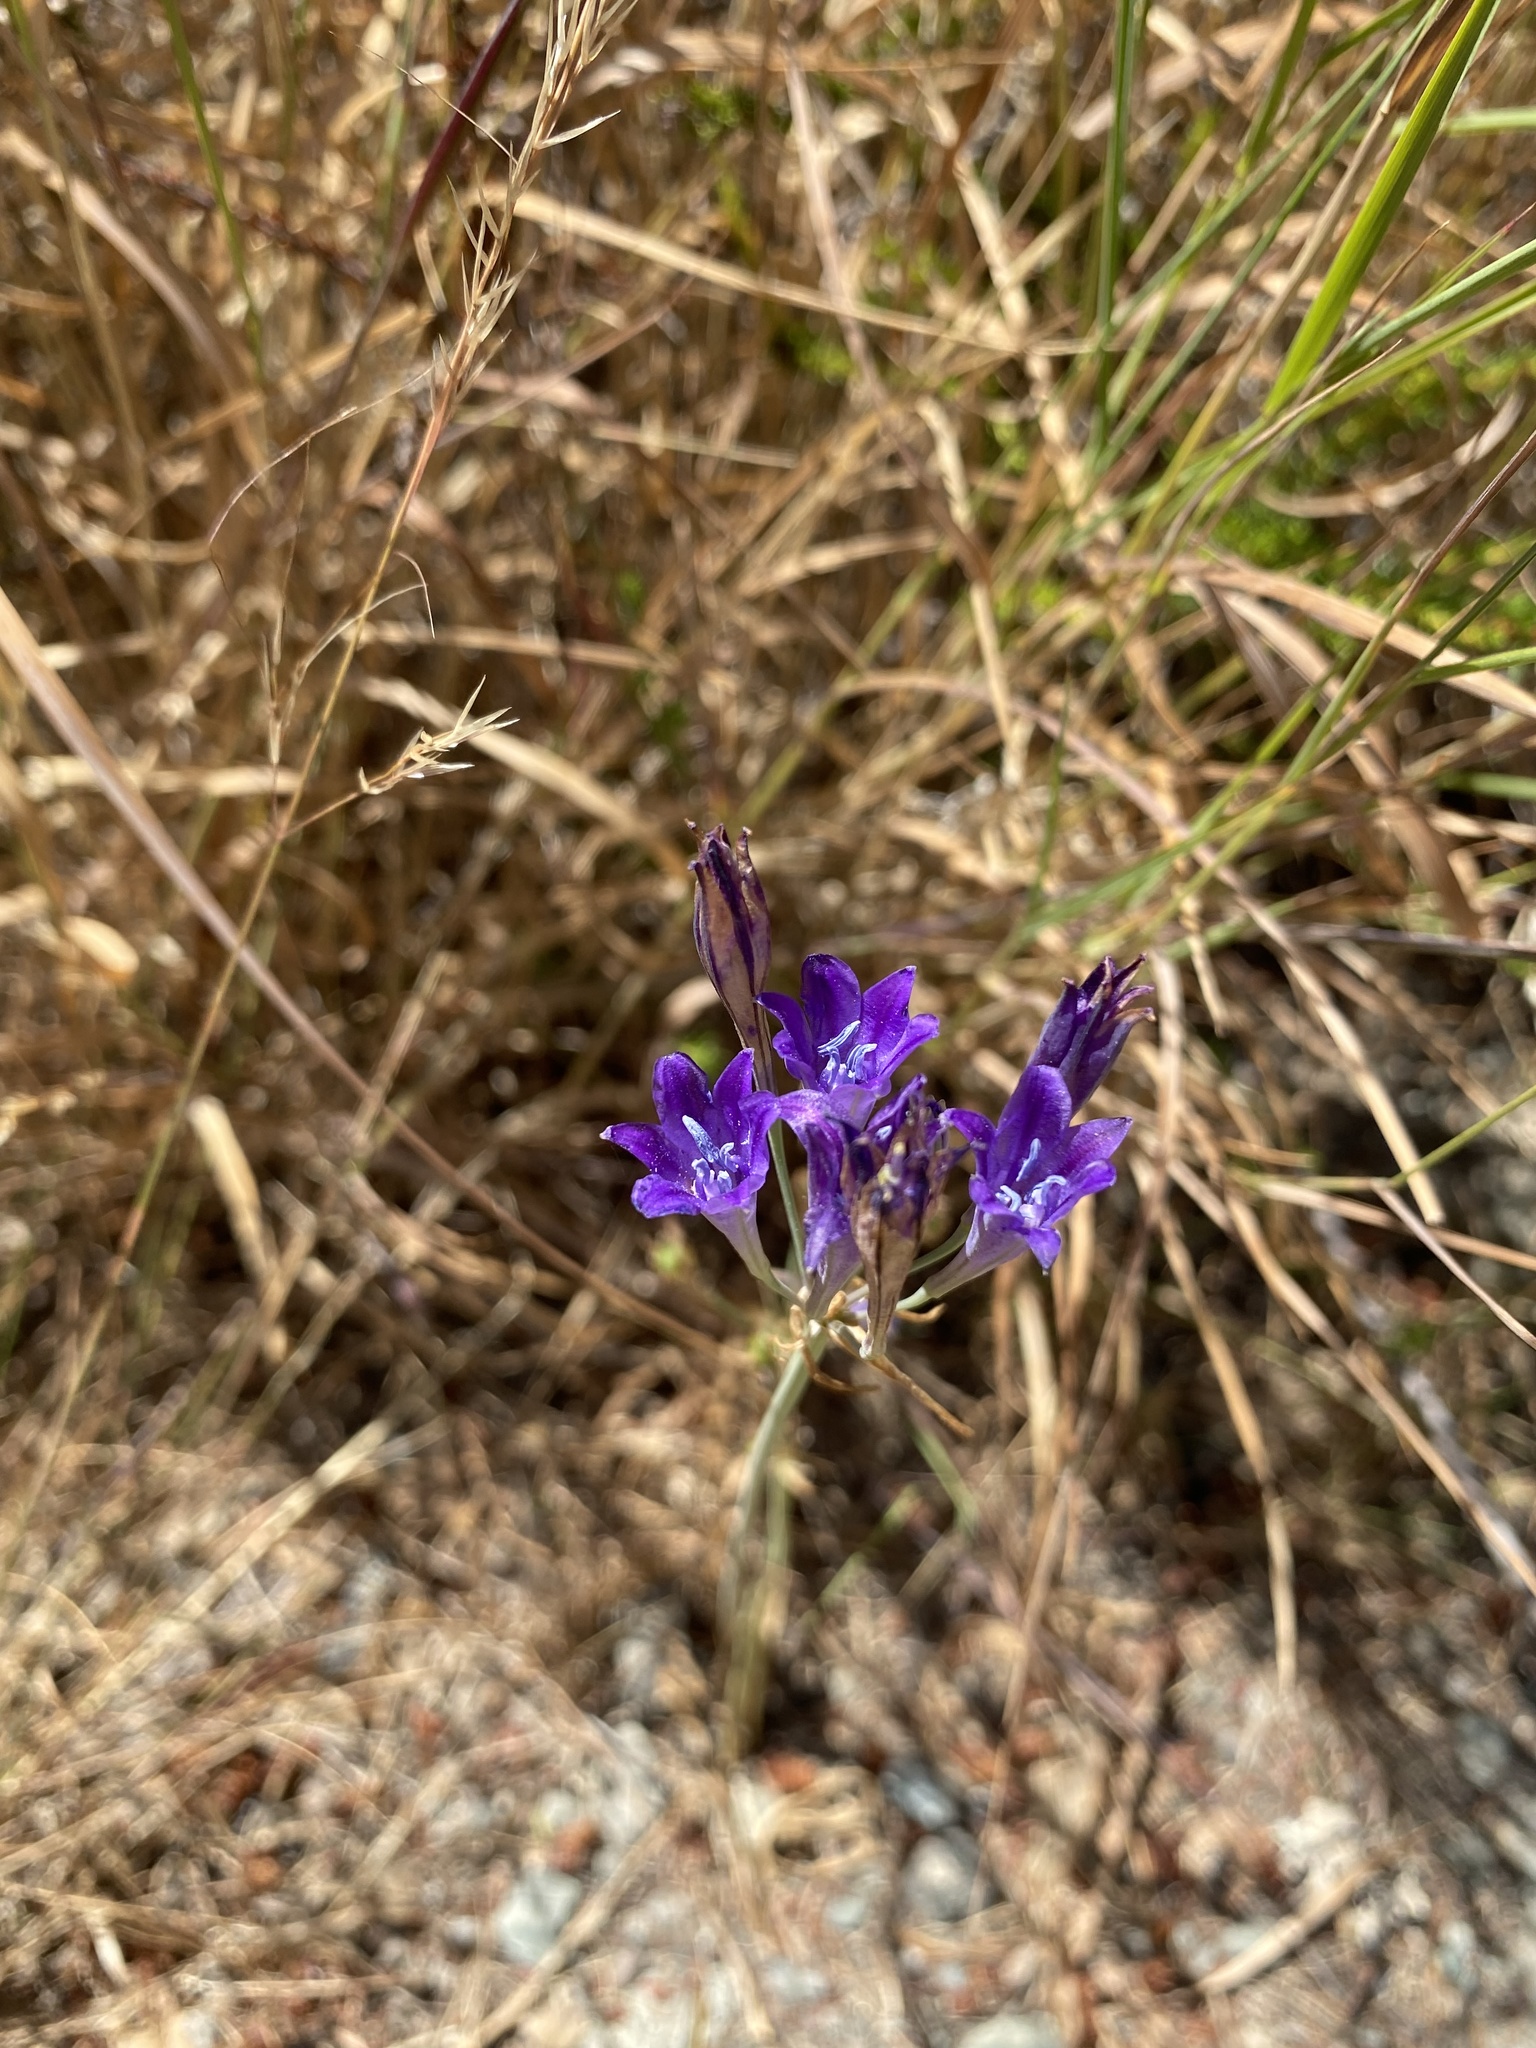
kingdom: Plantae
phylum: Tracheophyta
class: Liliopsida
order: Asparagales
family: Asparagaceae
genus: Triteleia
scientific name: Triteleia laxa
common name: Triplet-lily
